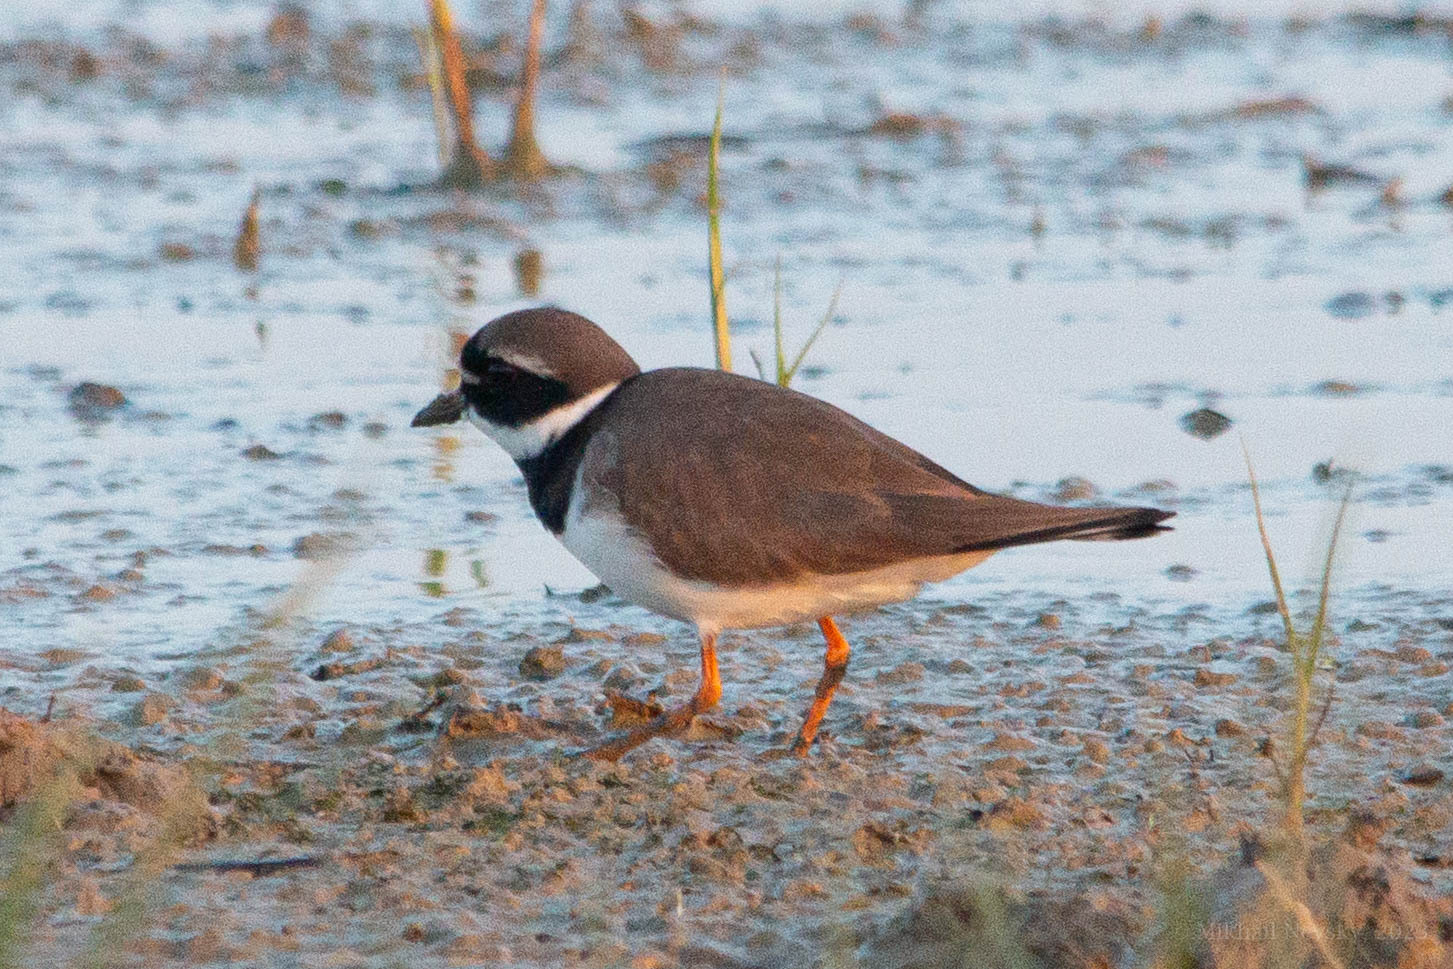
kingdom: Animalia
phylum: Chordata
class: Aves
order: Charadriiformes
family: Charadriidae
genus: Charadrius
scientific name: Charadrius hiaticula
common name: Common ringed plover
